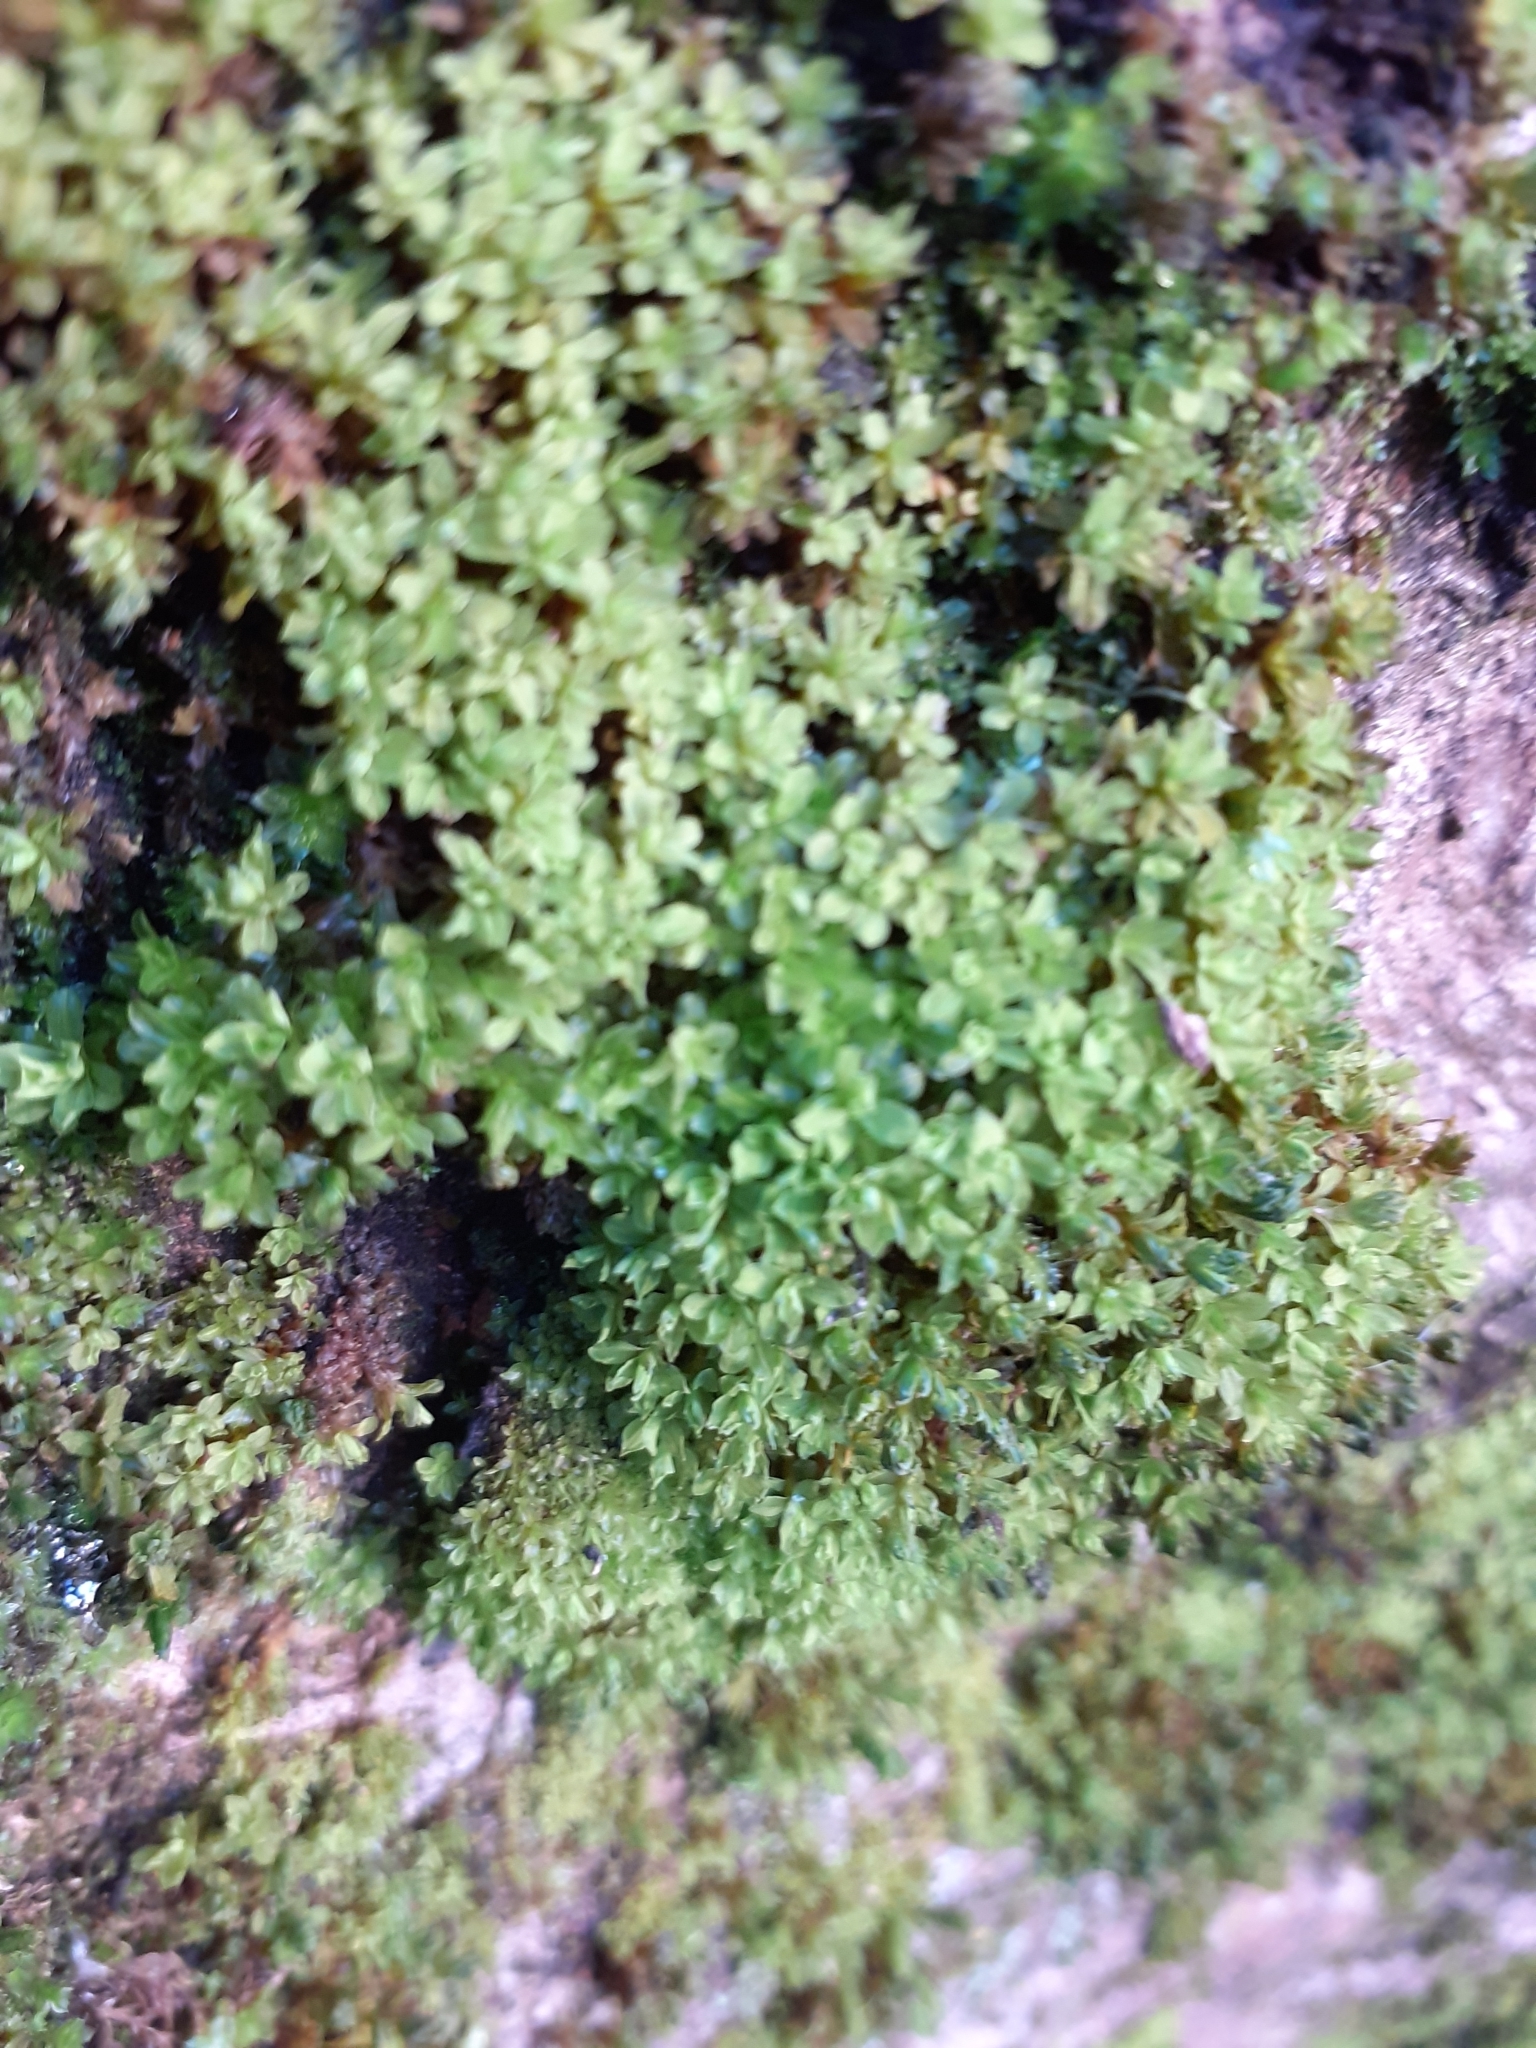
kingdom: Plantae
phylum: Bryophyta
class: Bryopsida
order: Pottiales
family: Pottiaceae
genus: Syntrichia
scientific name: Syntrichia latifolia
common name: Water screw-moss
